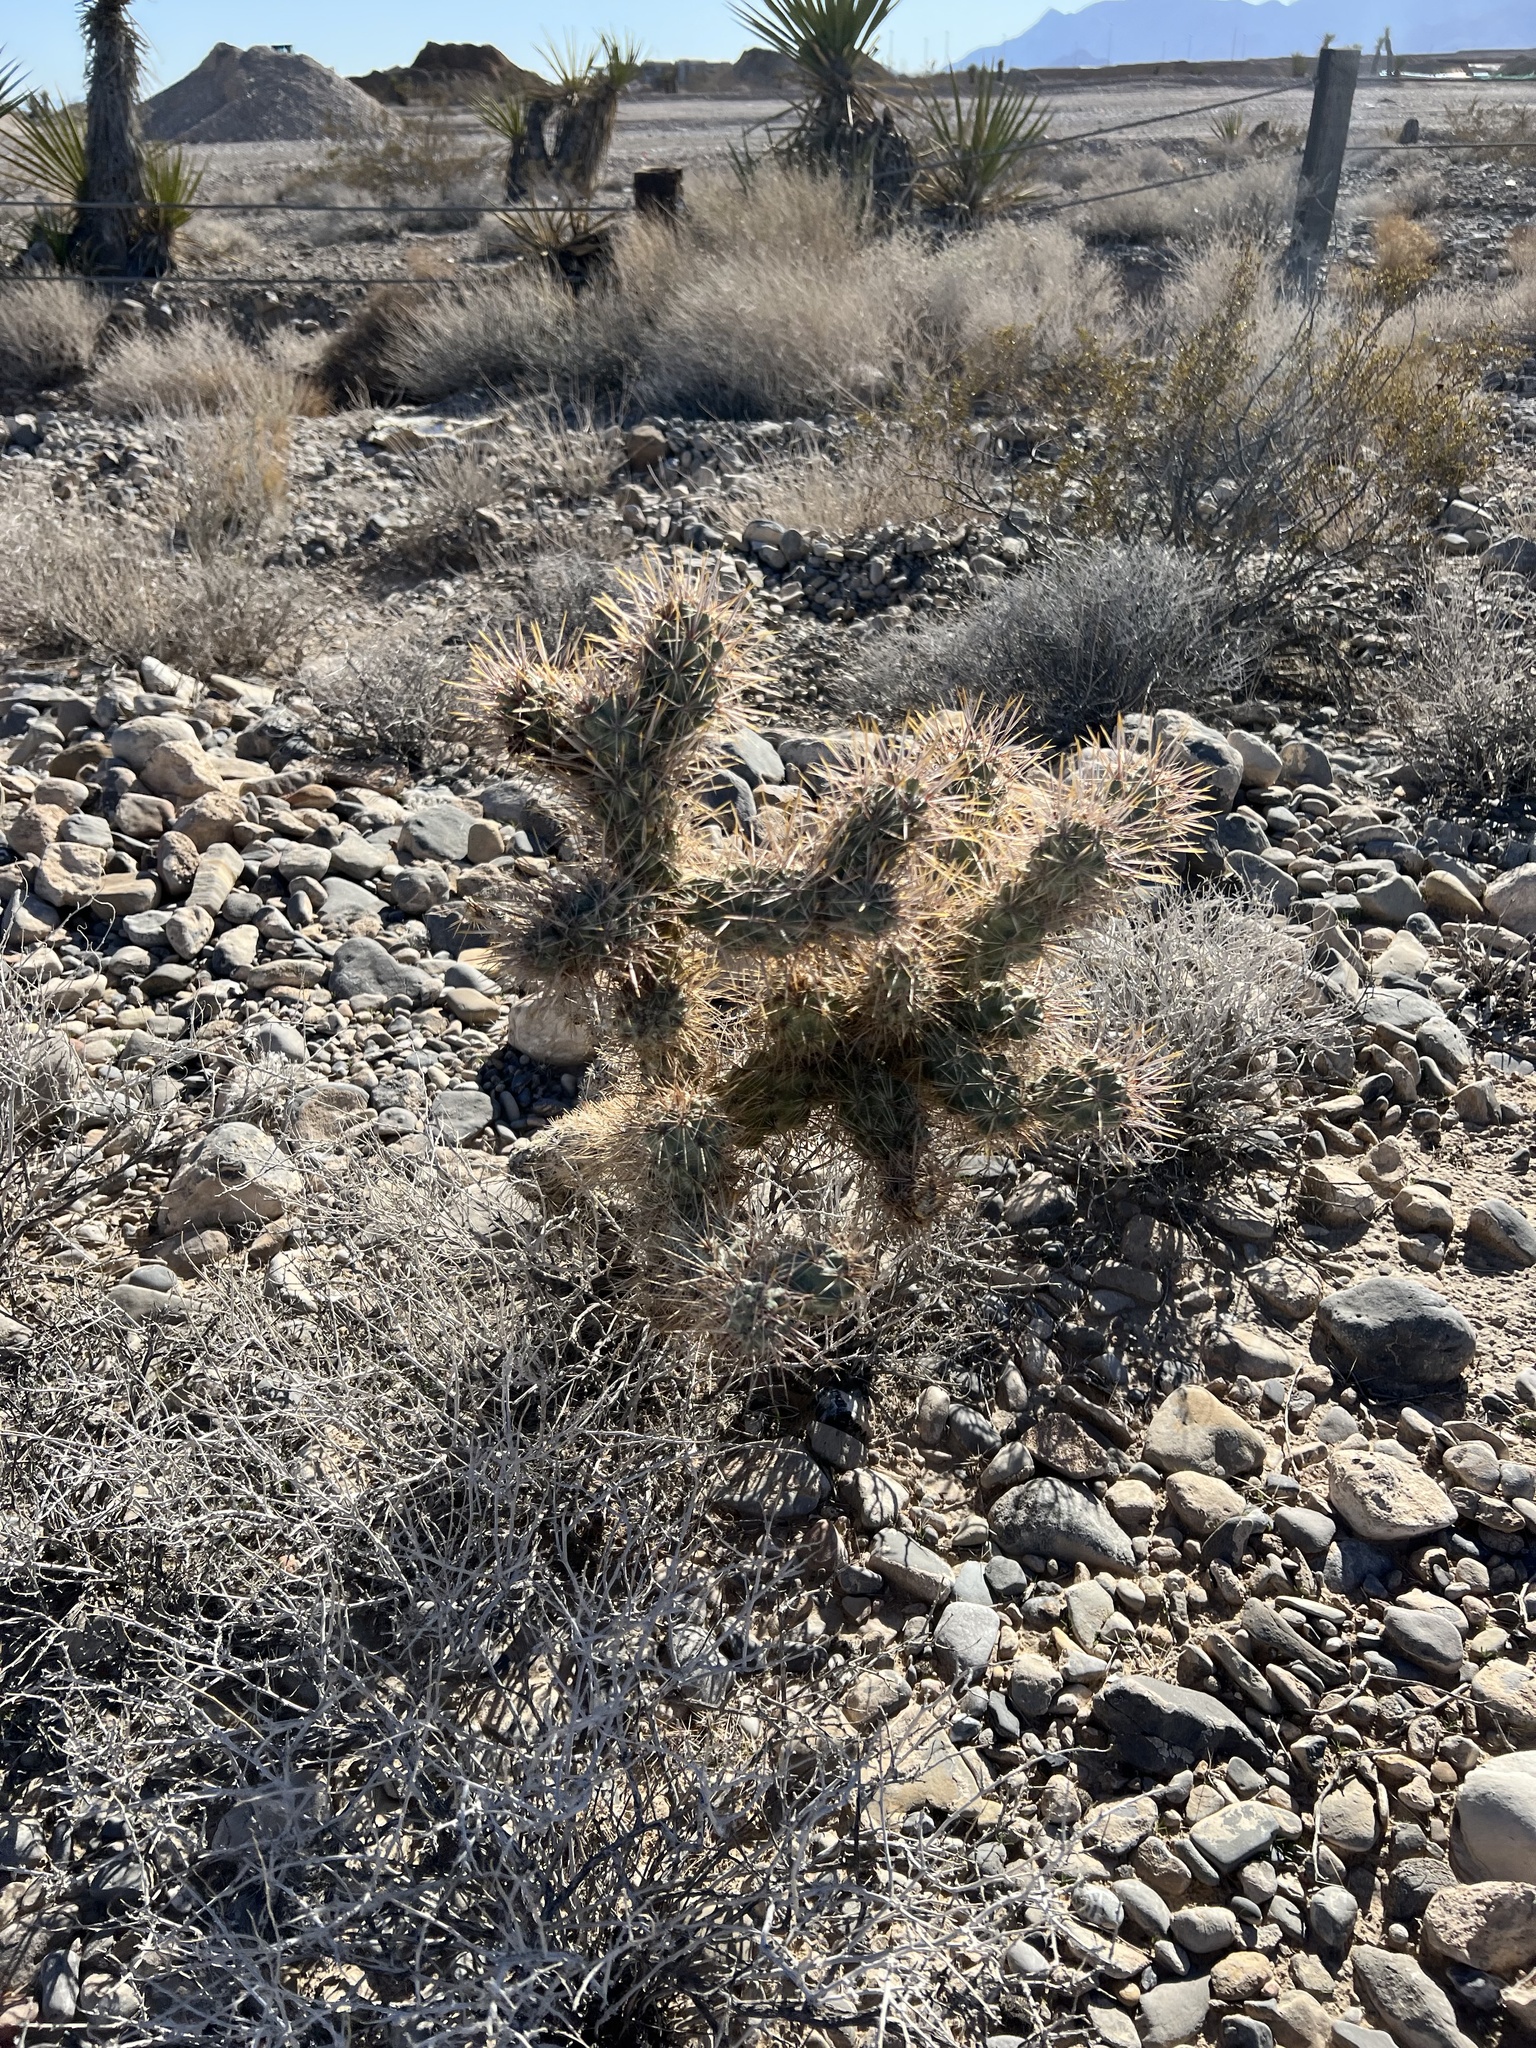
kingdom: Plantae
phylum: Tracheophyta
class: Magnoliopsida
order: Caryophyllales
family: Cactaceae
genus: Cylindropuntia
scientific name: Cylindropuntia echinocarpa
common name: Ground cholla
